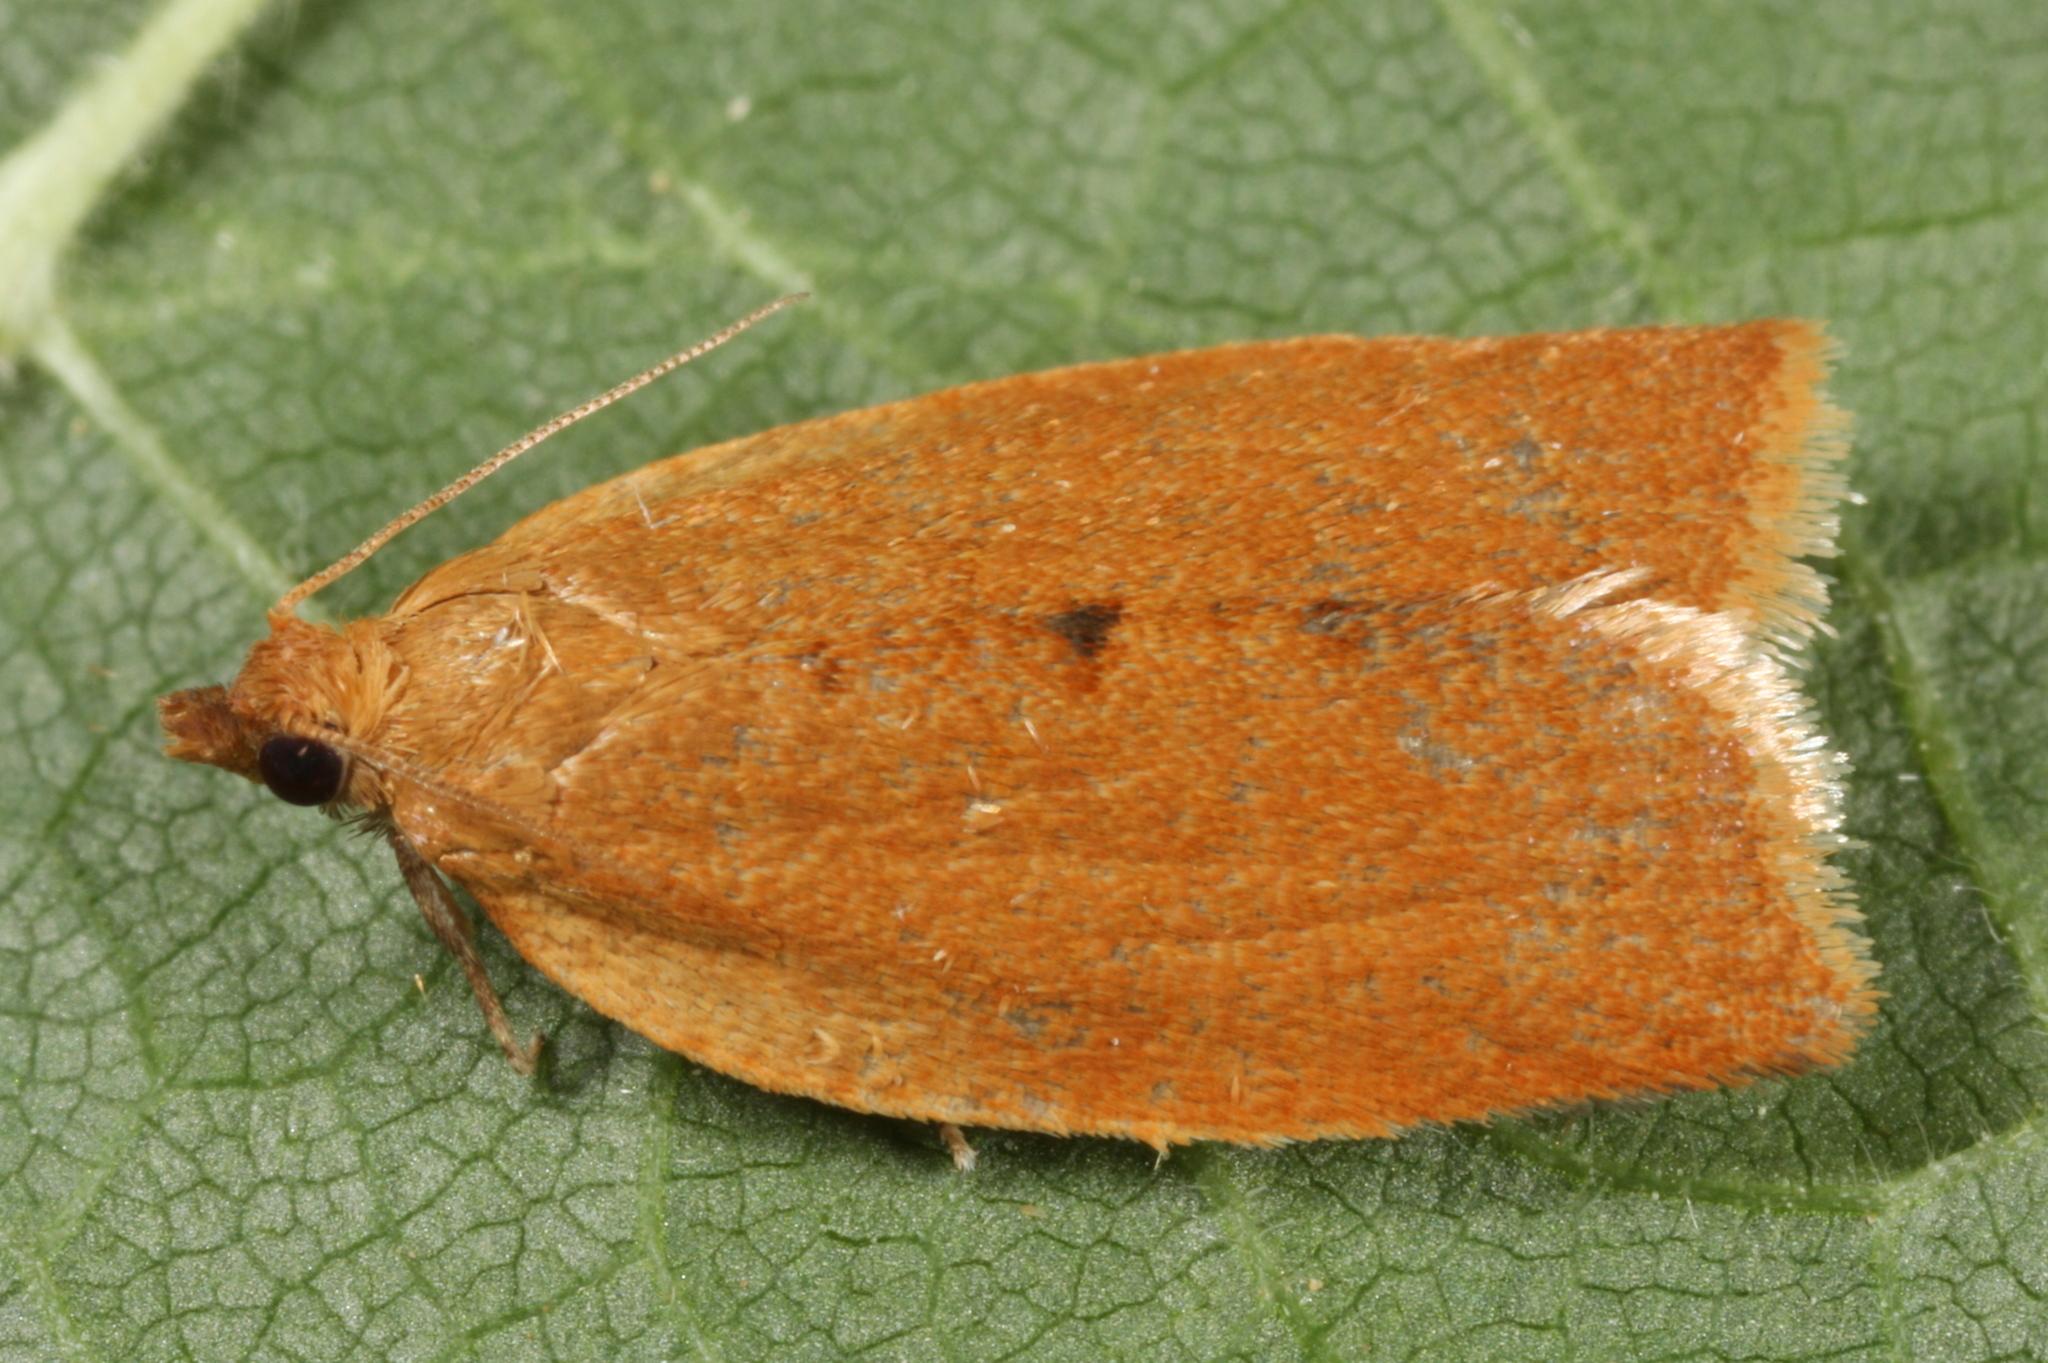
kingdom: Animalia
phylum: Arthropoda
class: Insecta
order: Lepidoptera
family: Tortricidae
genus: Clepsis
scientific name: Clepsis consimilana
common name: Privet tortrix
